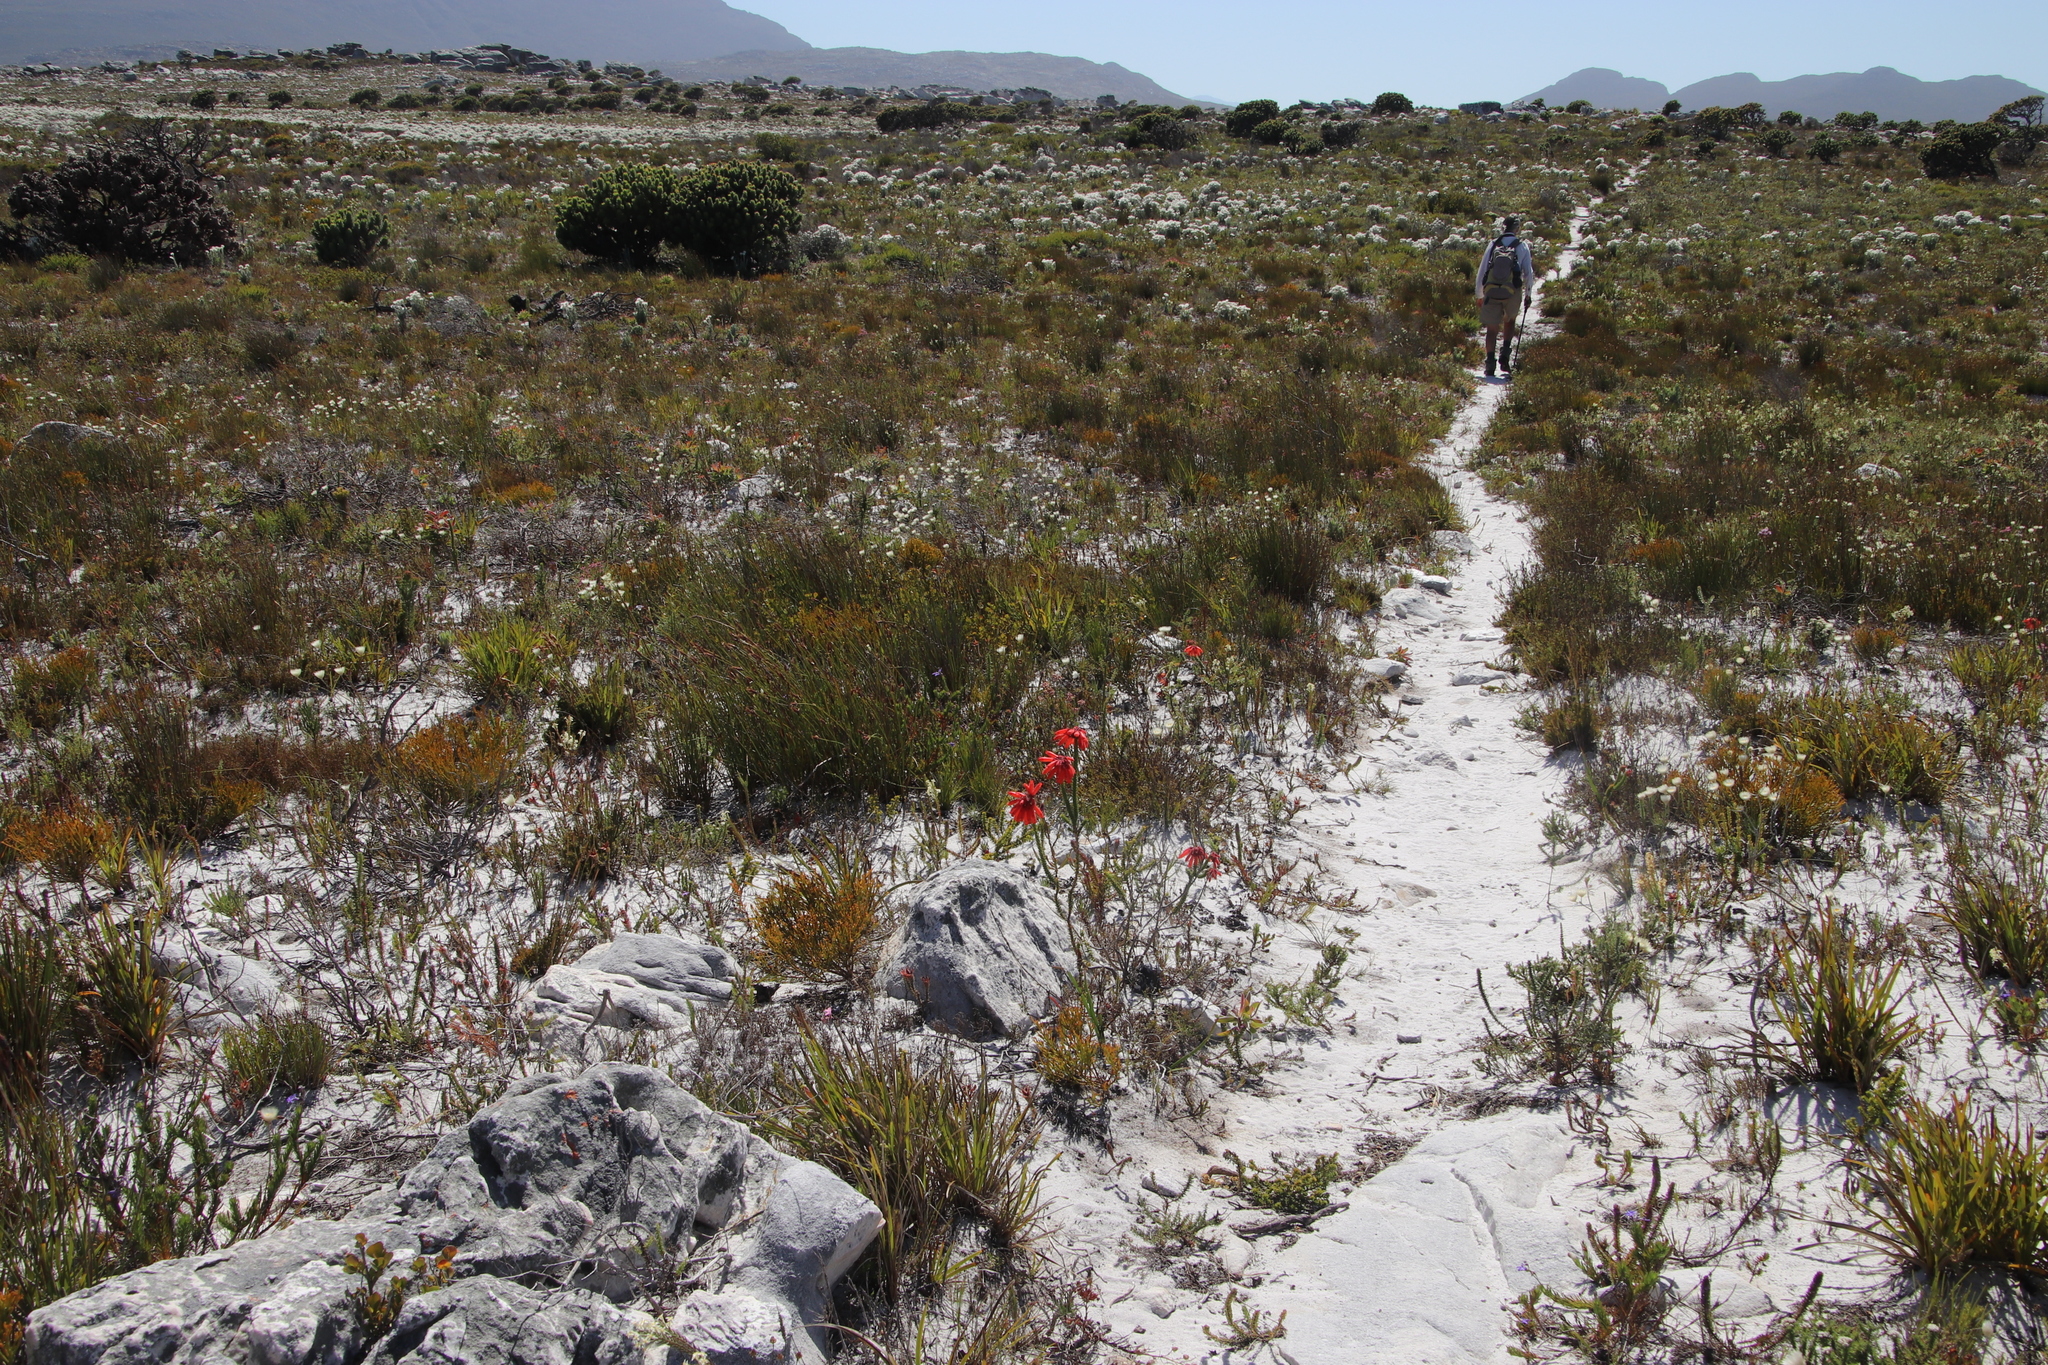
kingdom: Plantae
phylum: Tracheophyta
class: Magnoliopsida
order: Ericales
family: Ericaceae
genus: Erica
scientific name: Erica cerinthoides
